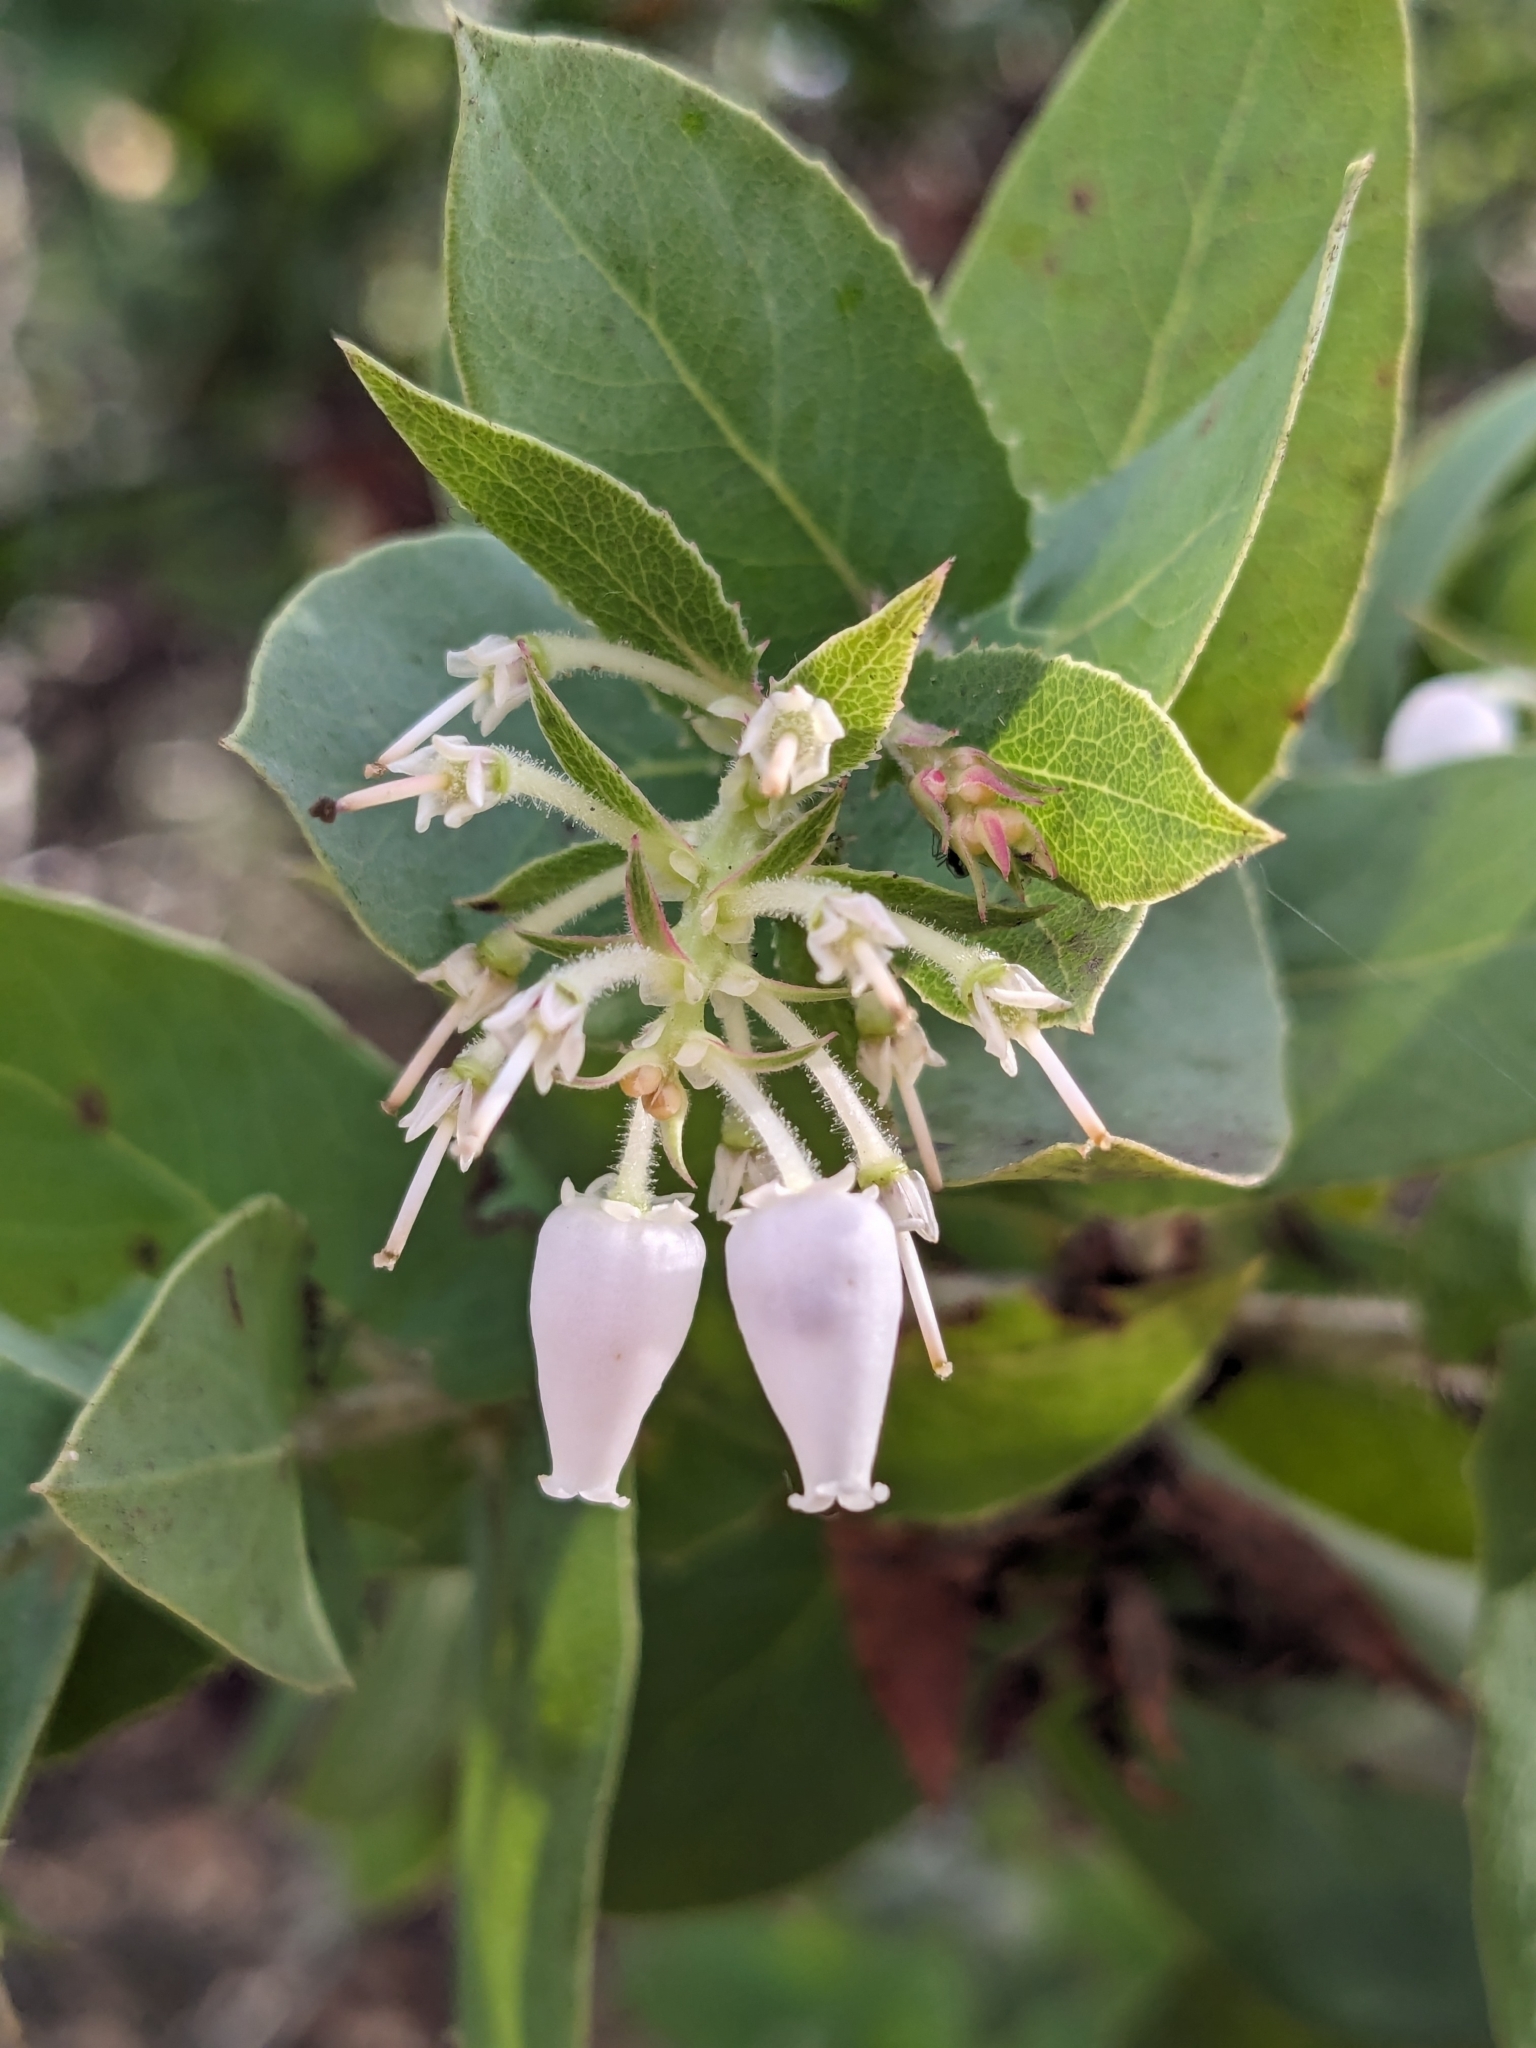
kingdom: Plantae
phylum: Tracheophyta
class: Magnoliopsida
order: Ericales
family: Ericaceae
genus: Arctostaphylos
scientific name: Arctostaphylos pallida
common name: Pallid manzanita
